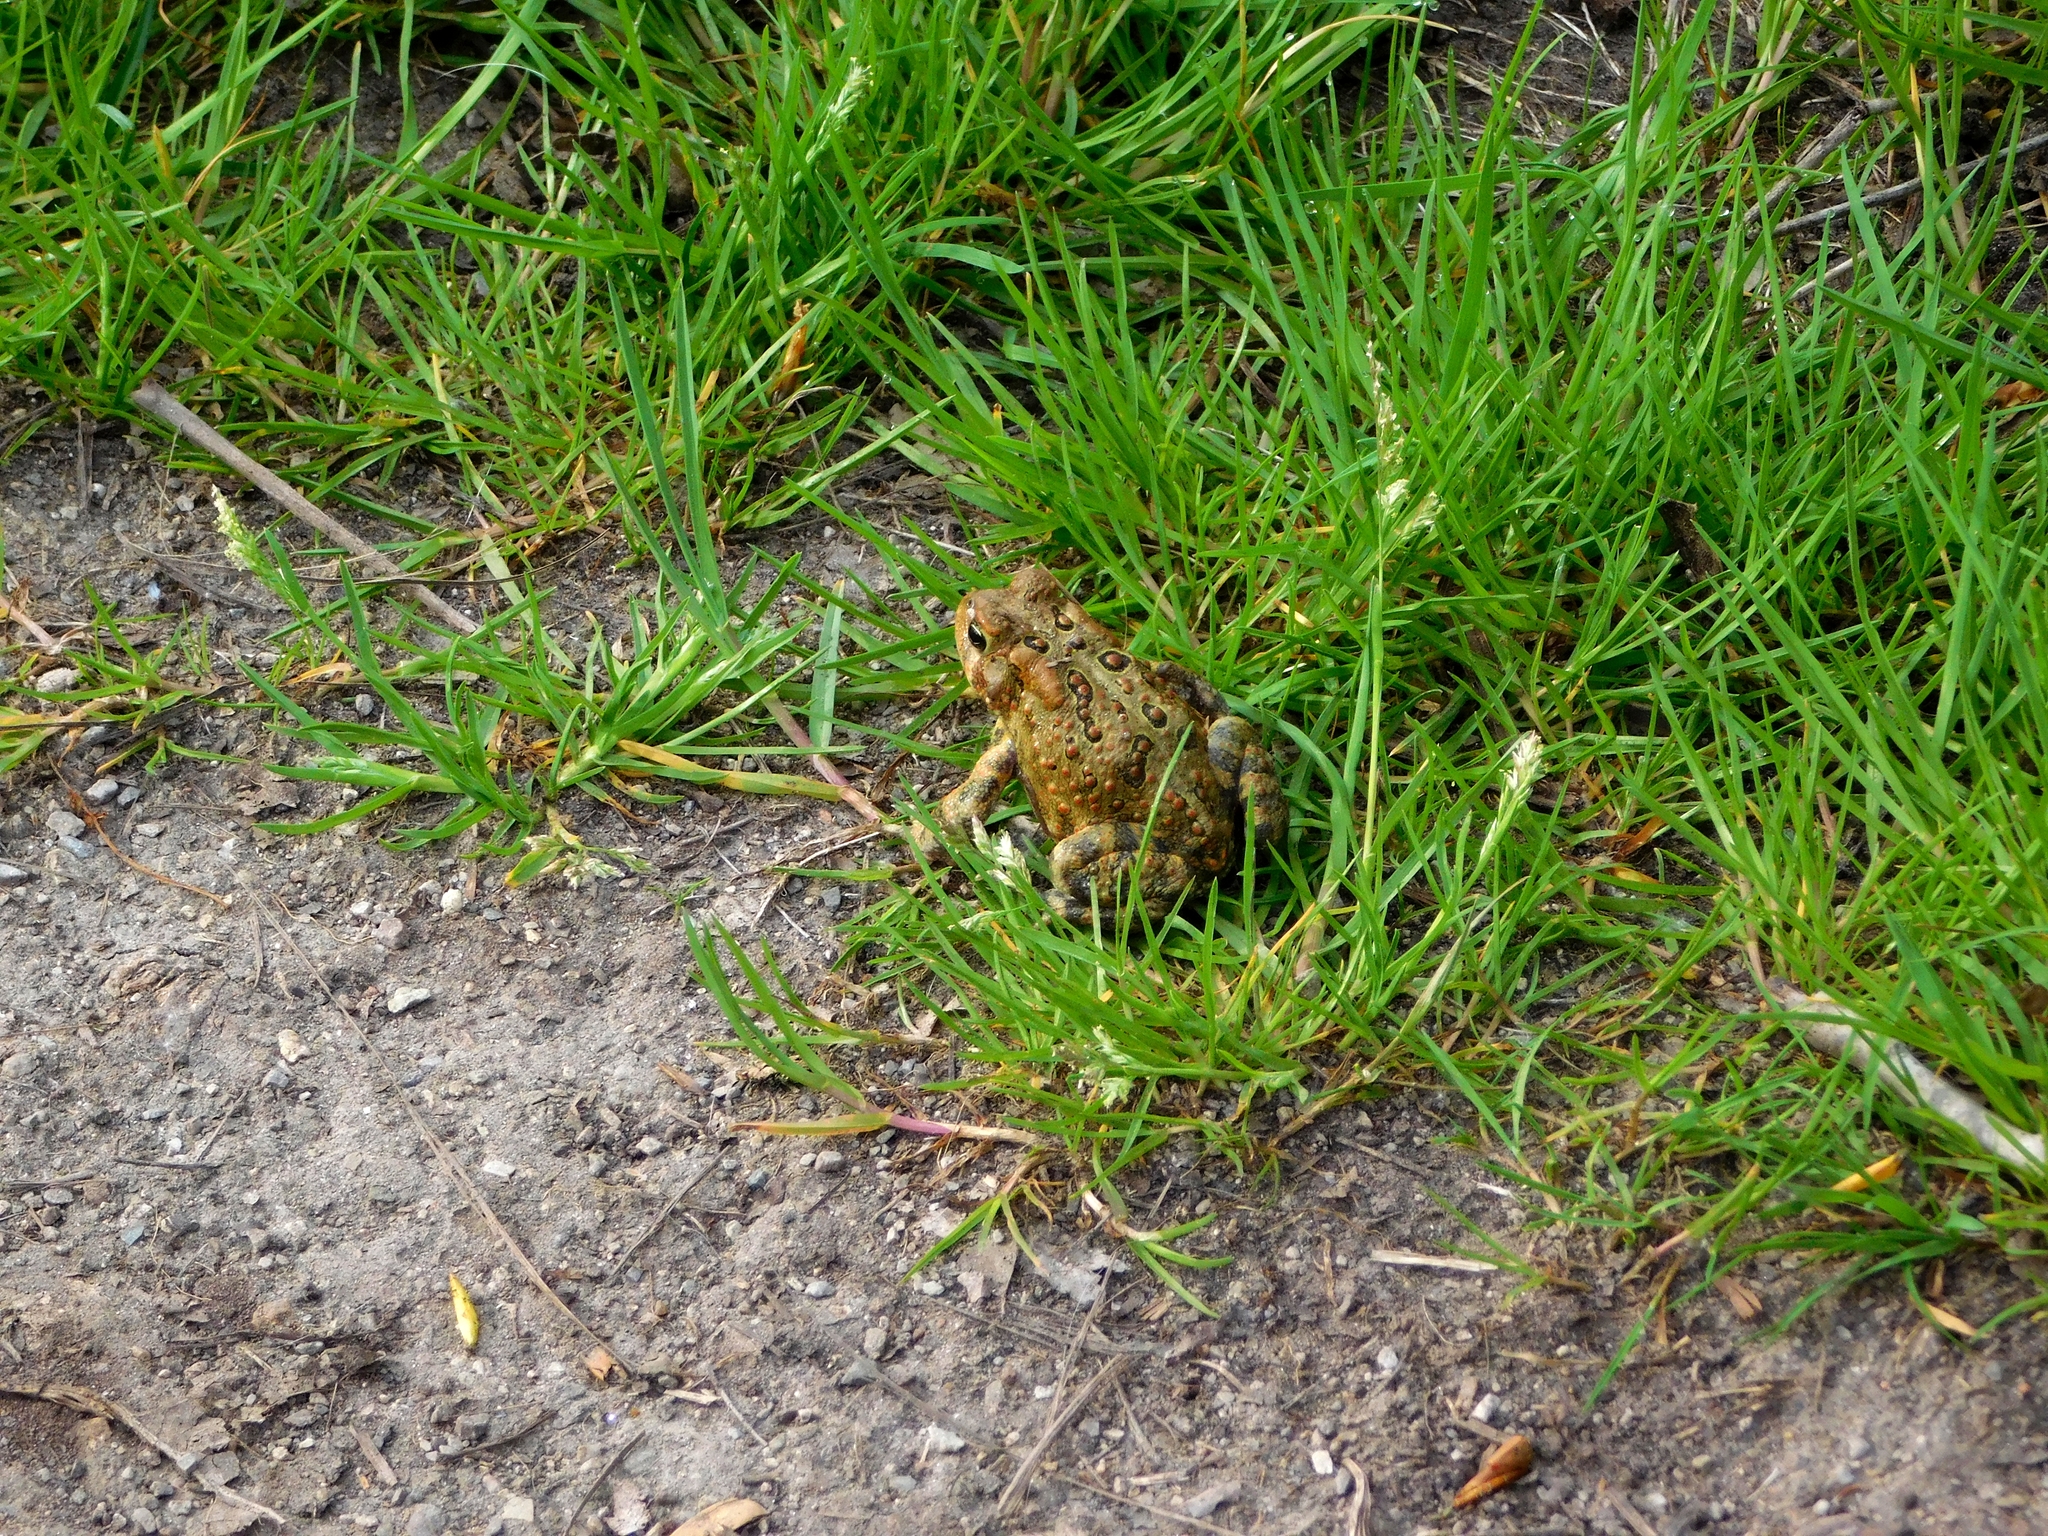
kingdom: Animalia
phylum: Chordata
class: Amphibia
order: Anura
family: Bufonidae
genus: Anaxyrus
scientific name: Anaxyrus americanus
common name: American toad
